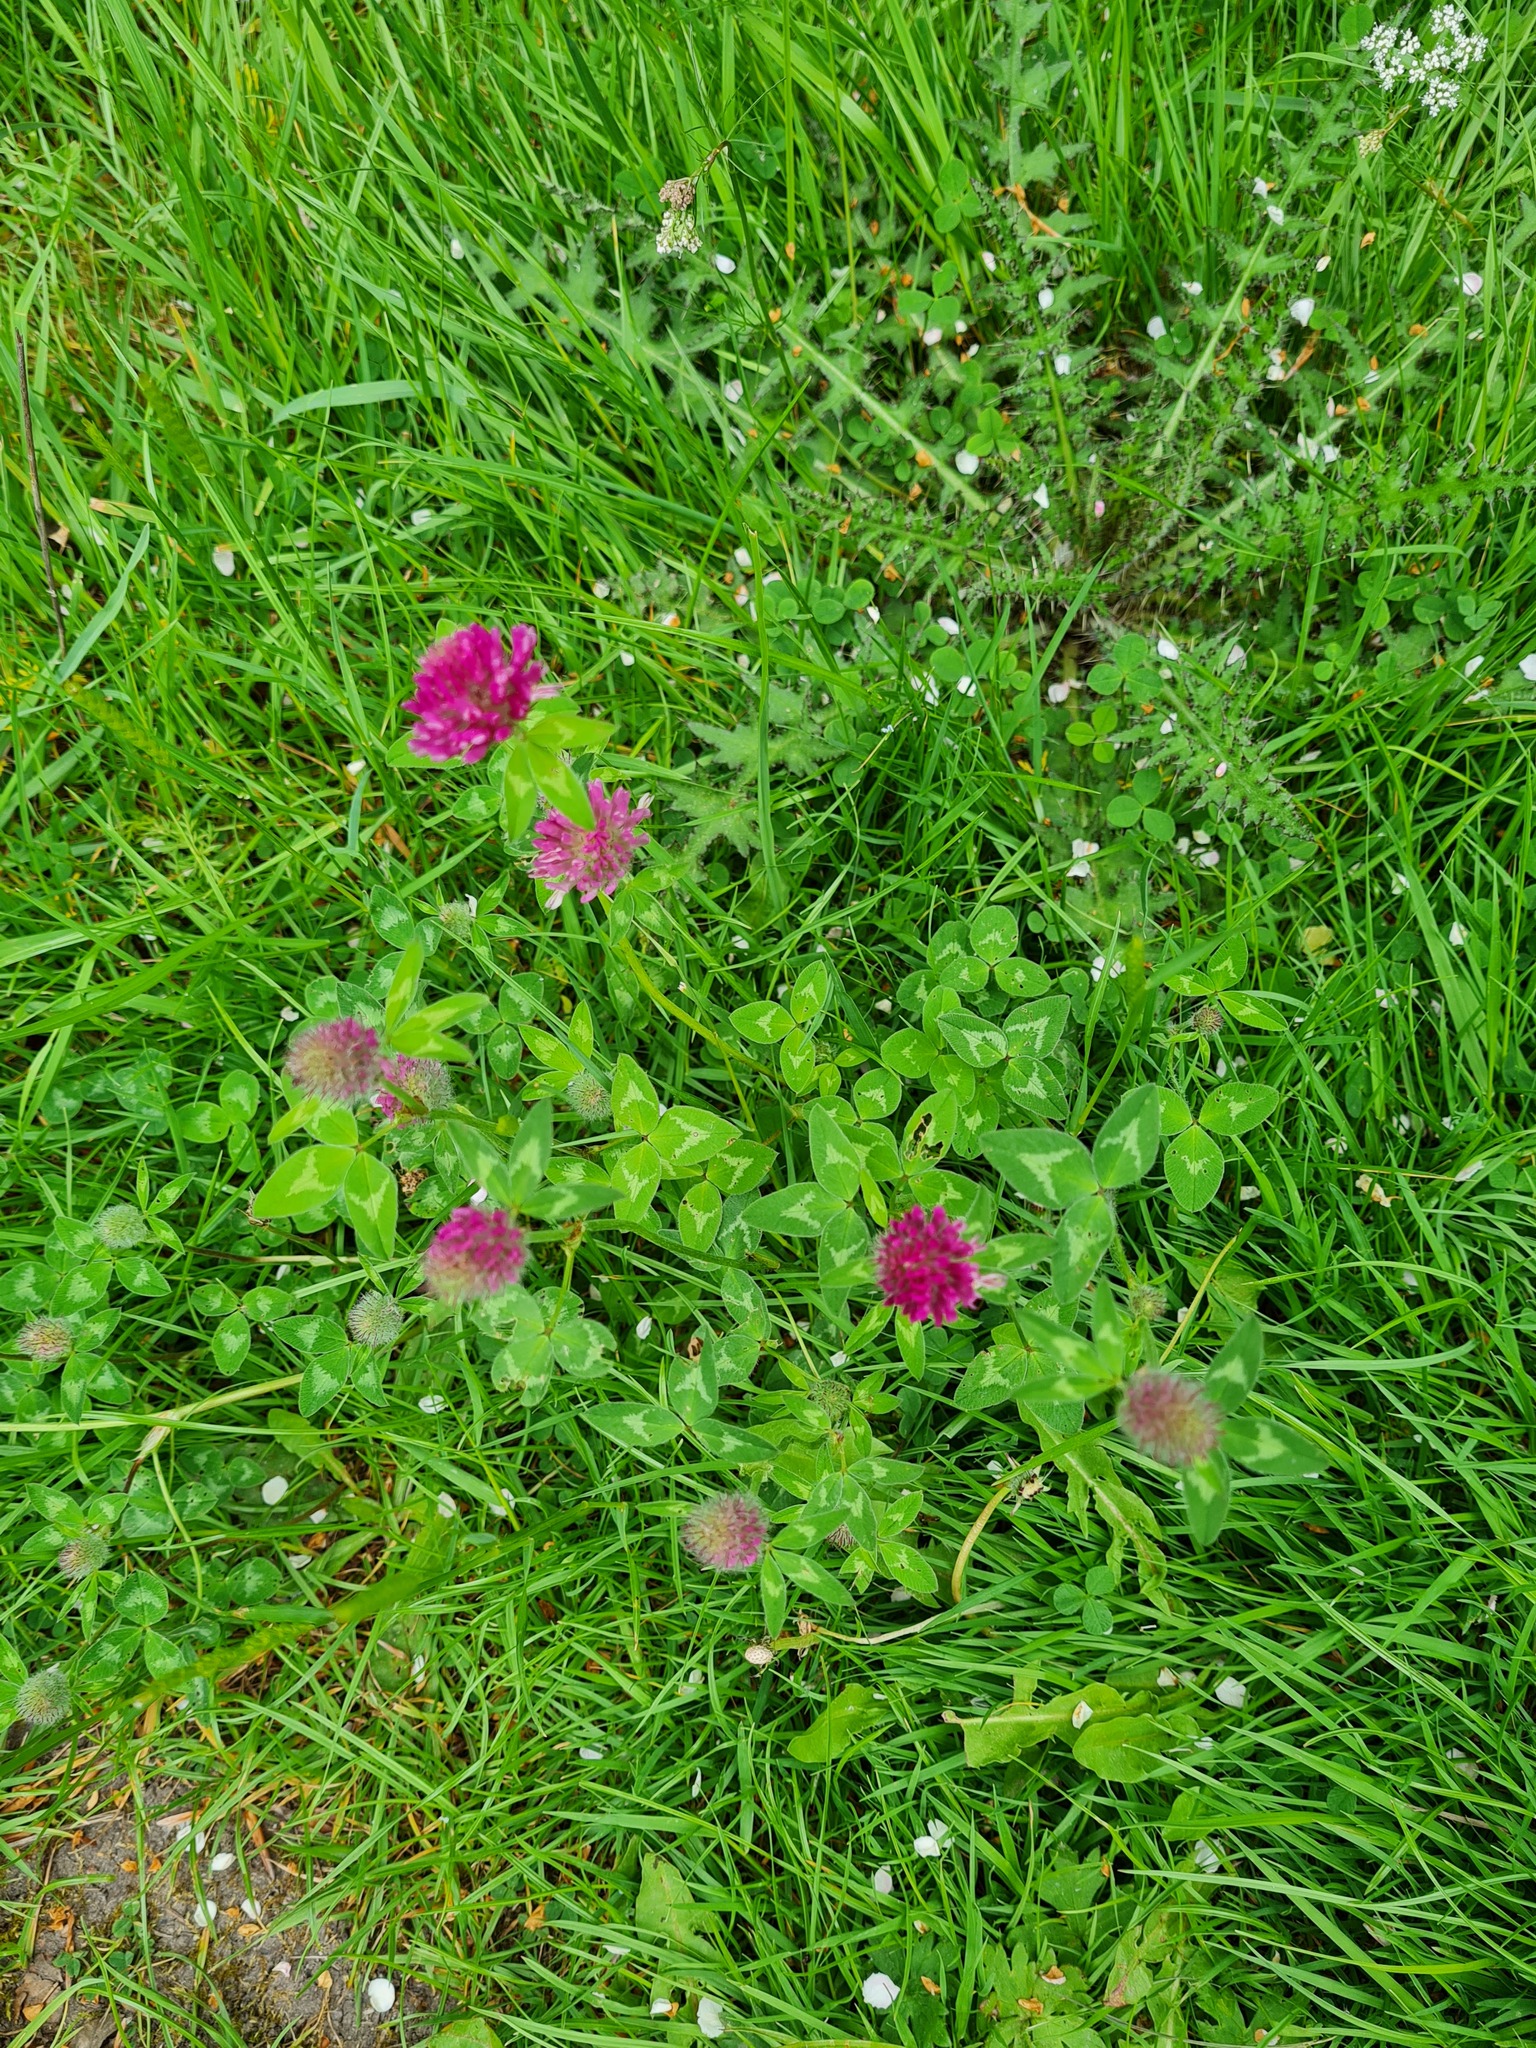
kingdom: Plantae
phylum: Tracheophyta
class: Magnoliopsida
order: Fabales
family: Fabaceae
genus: Trifolium
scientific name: Trifolium pratense
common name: Red clover
